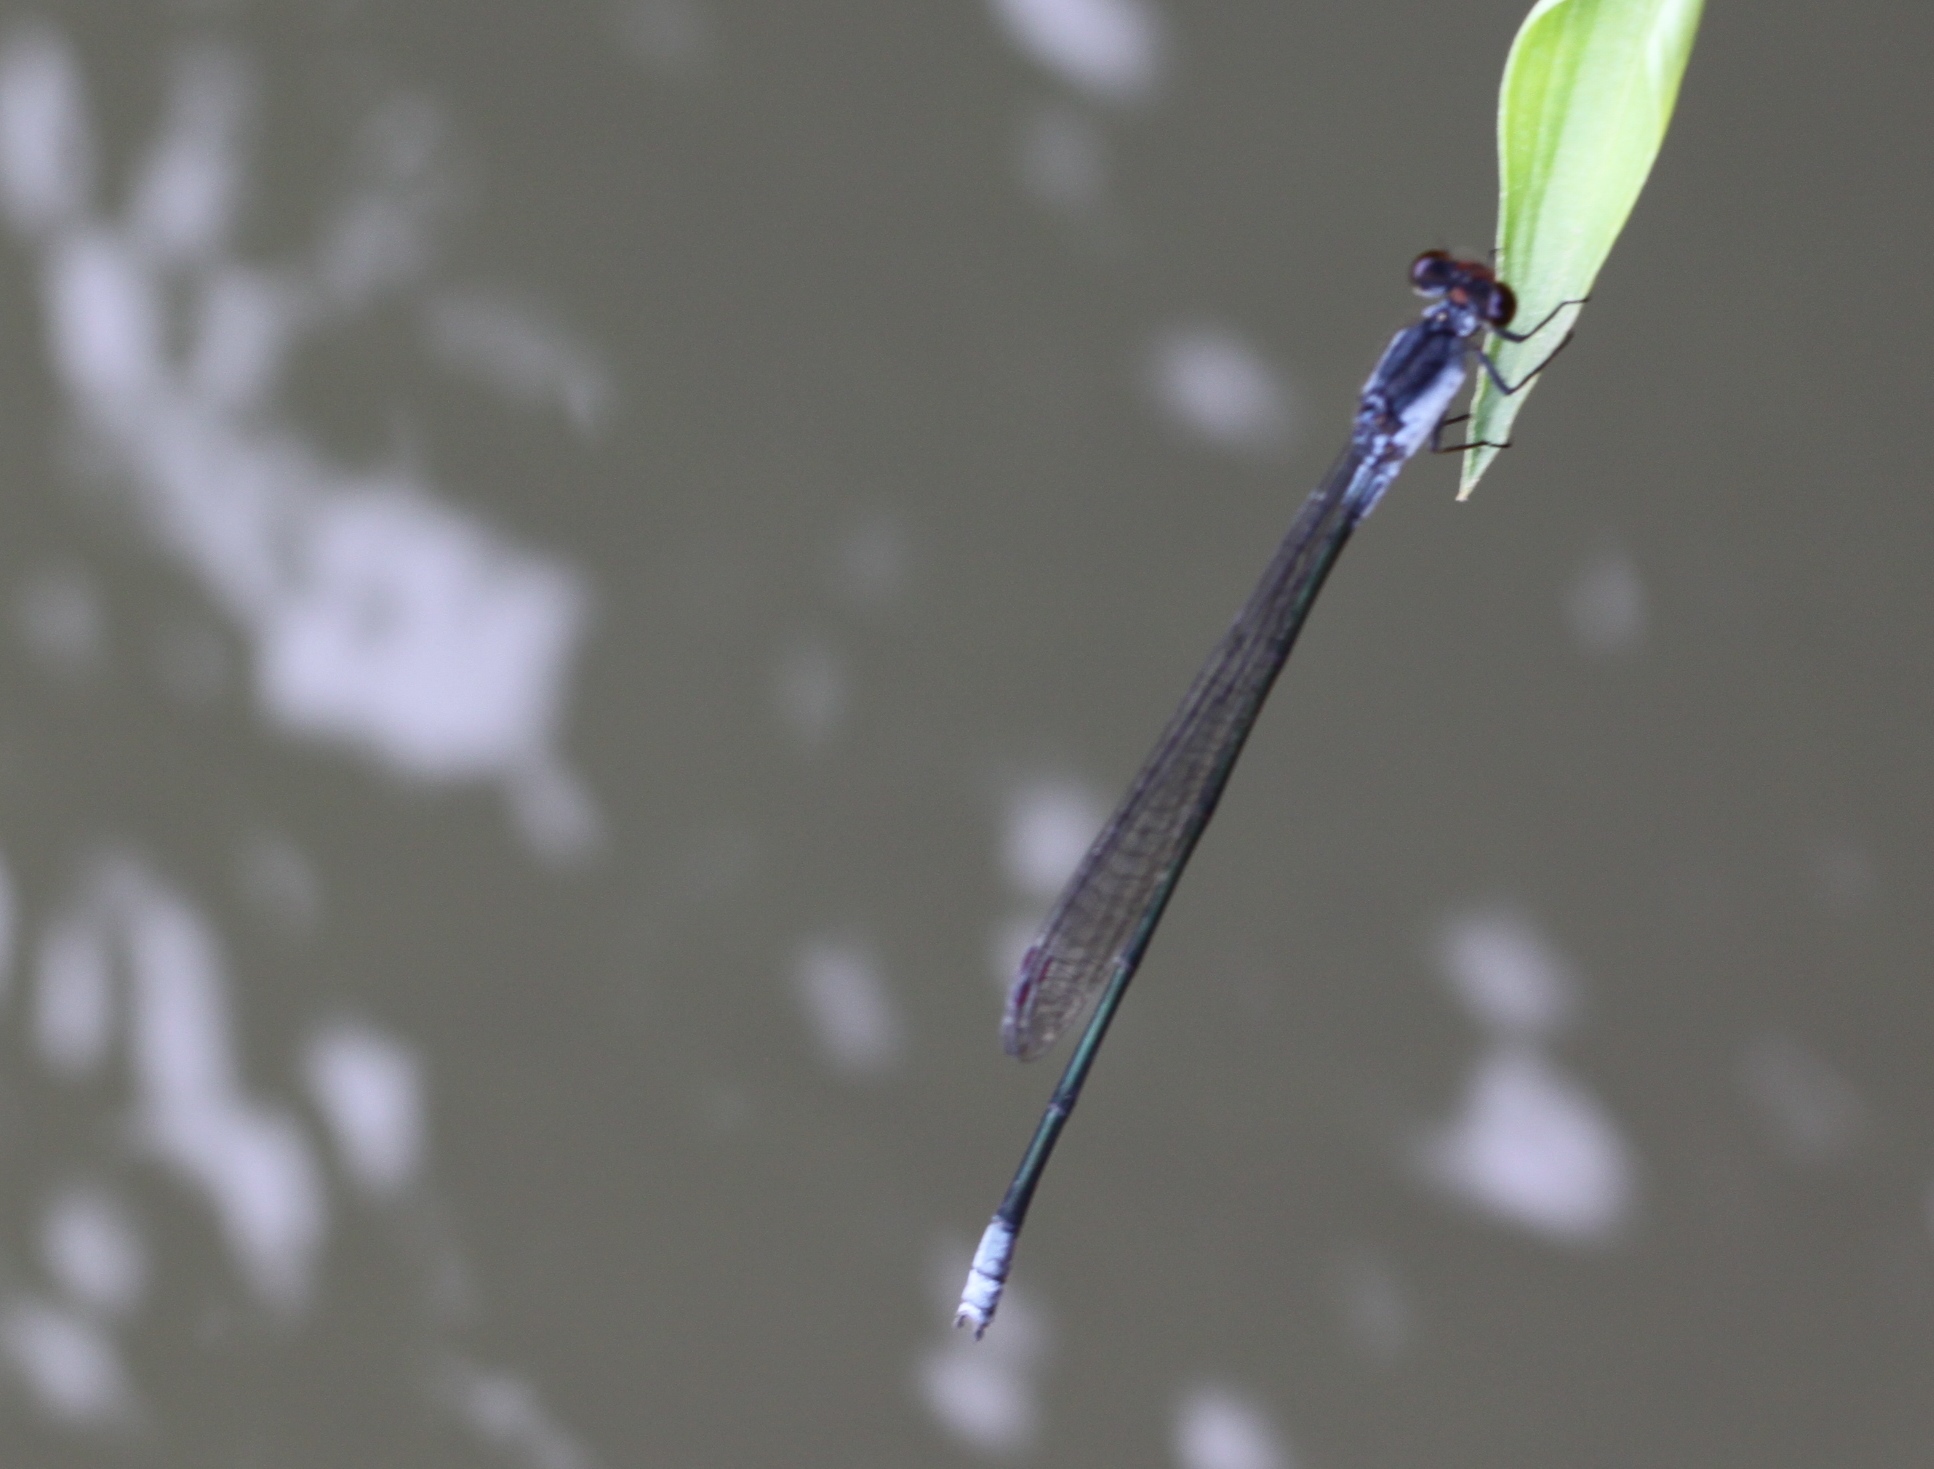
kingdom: Animalia
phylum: Arthropoda
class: Insecta
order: Odonata
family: Coenagrionidae
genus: Pseudagrion
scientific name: Pseudagrion pruinosum
